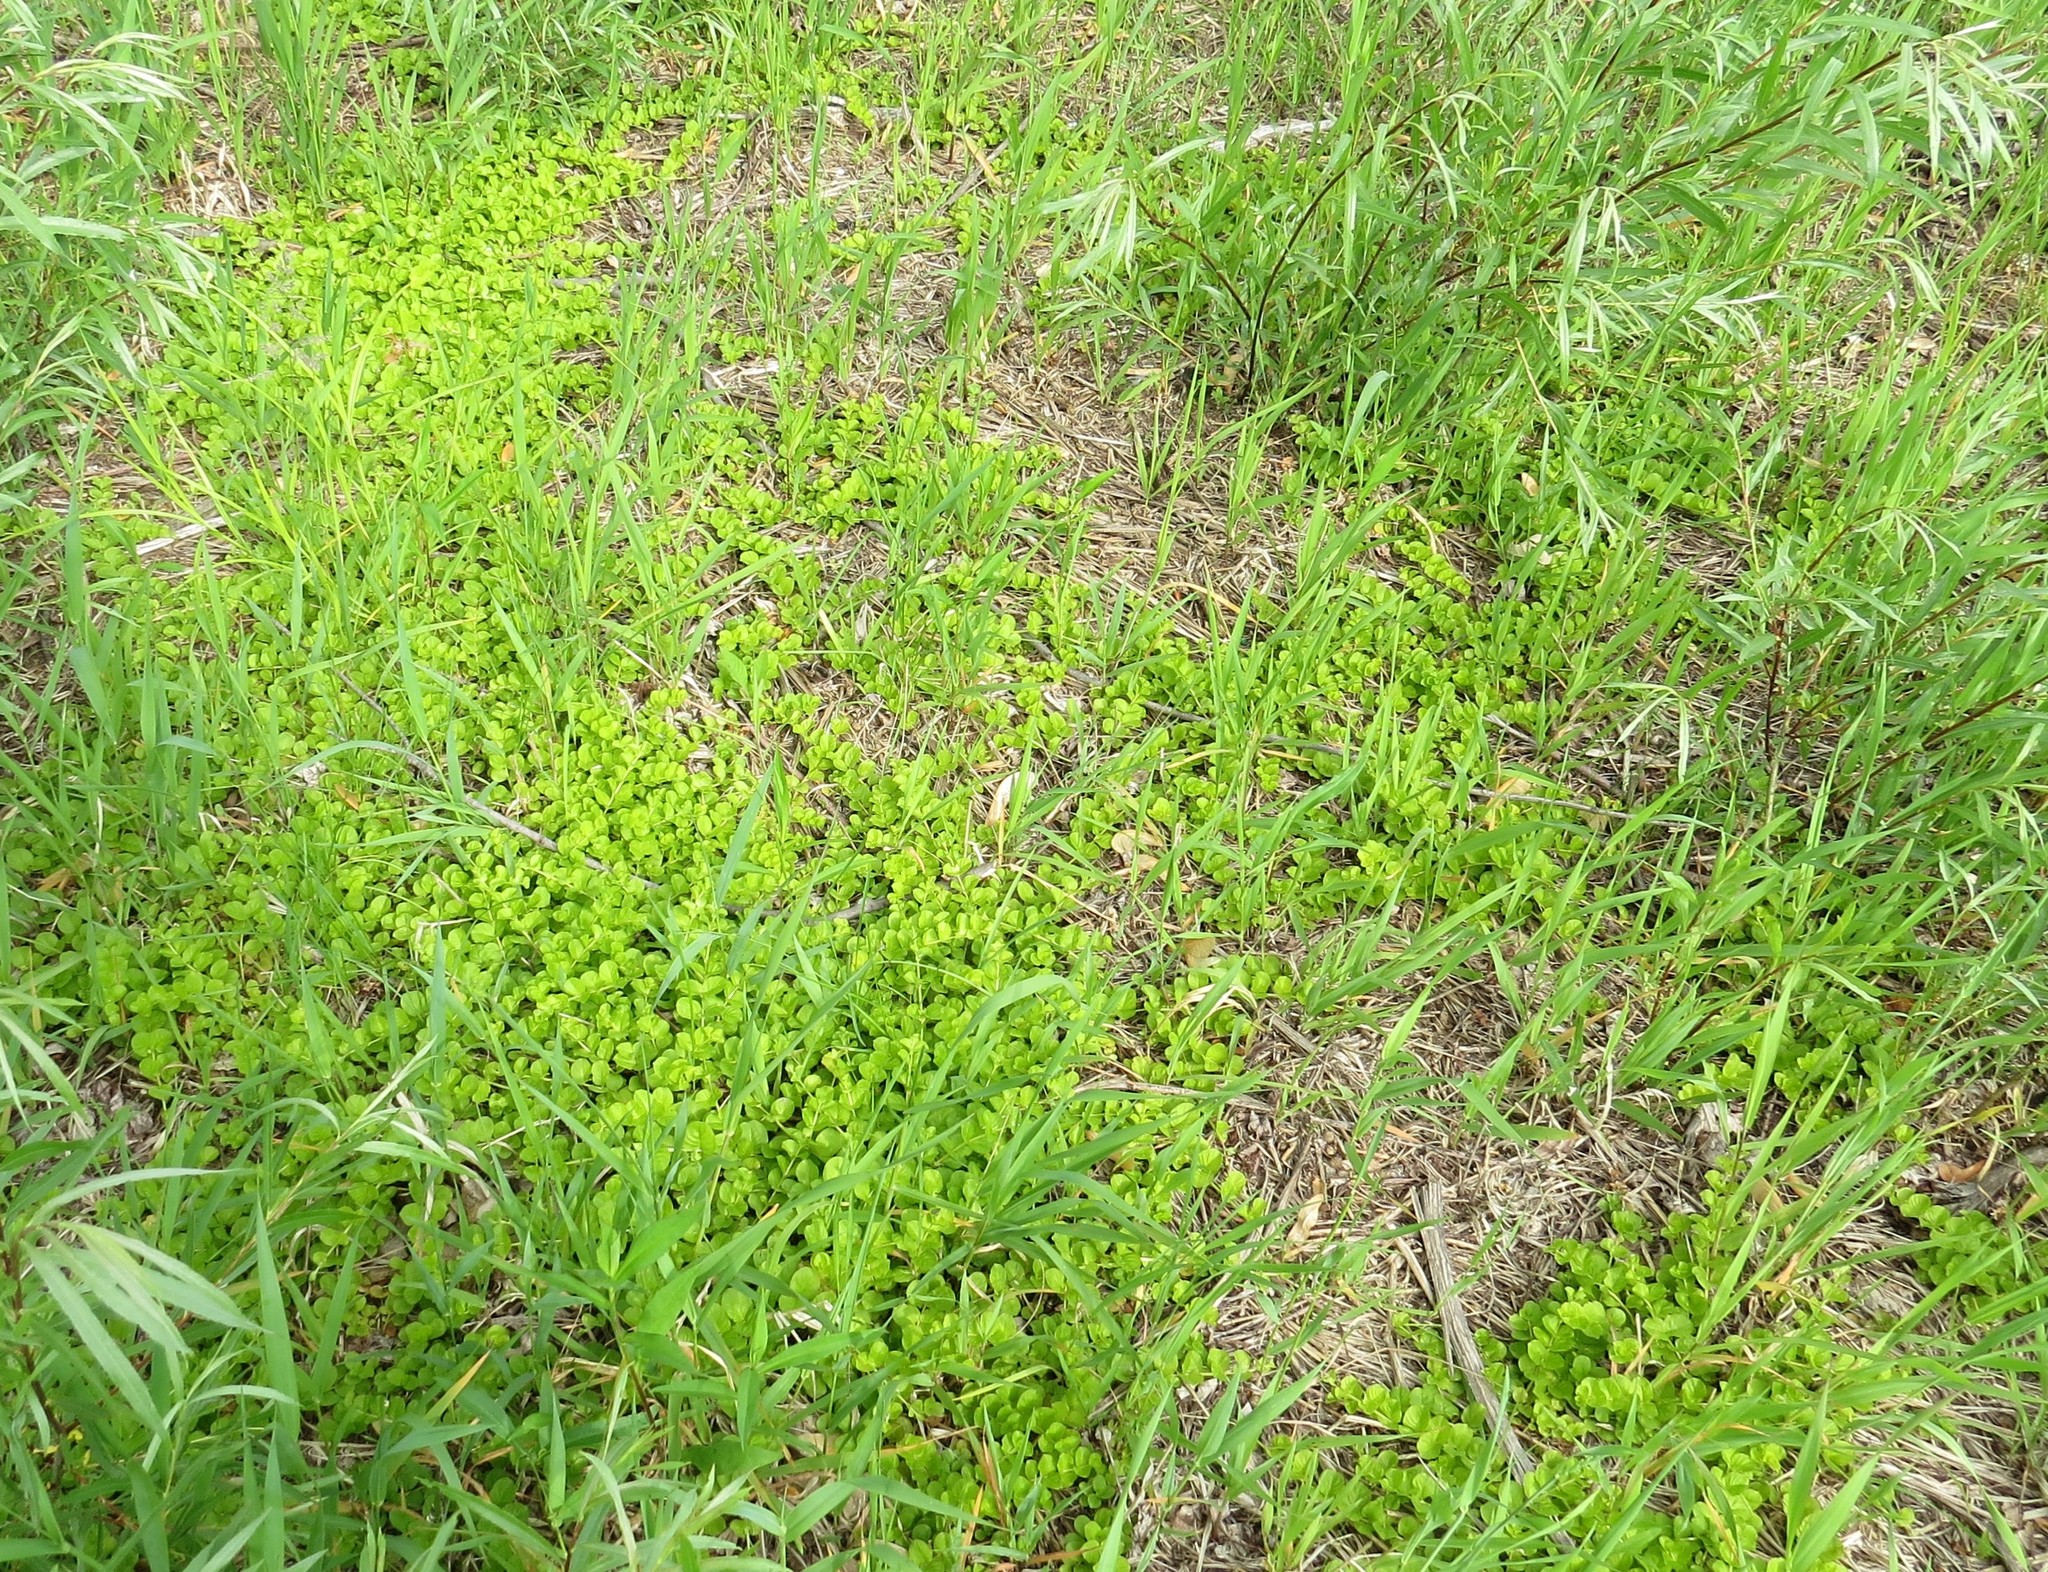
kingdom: Plantae
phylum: Tracheophyta
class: Magnoliopsida
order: Ericales
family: Primulaceae
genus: Lysimachia
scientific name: Lysimachia nummularia
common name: Moneywort
